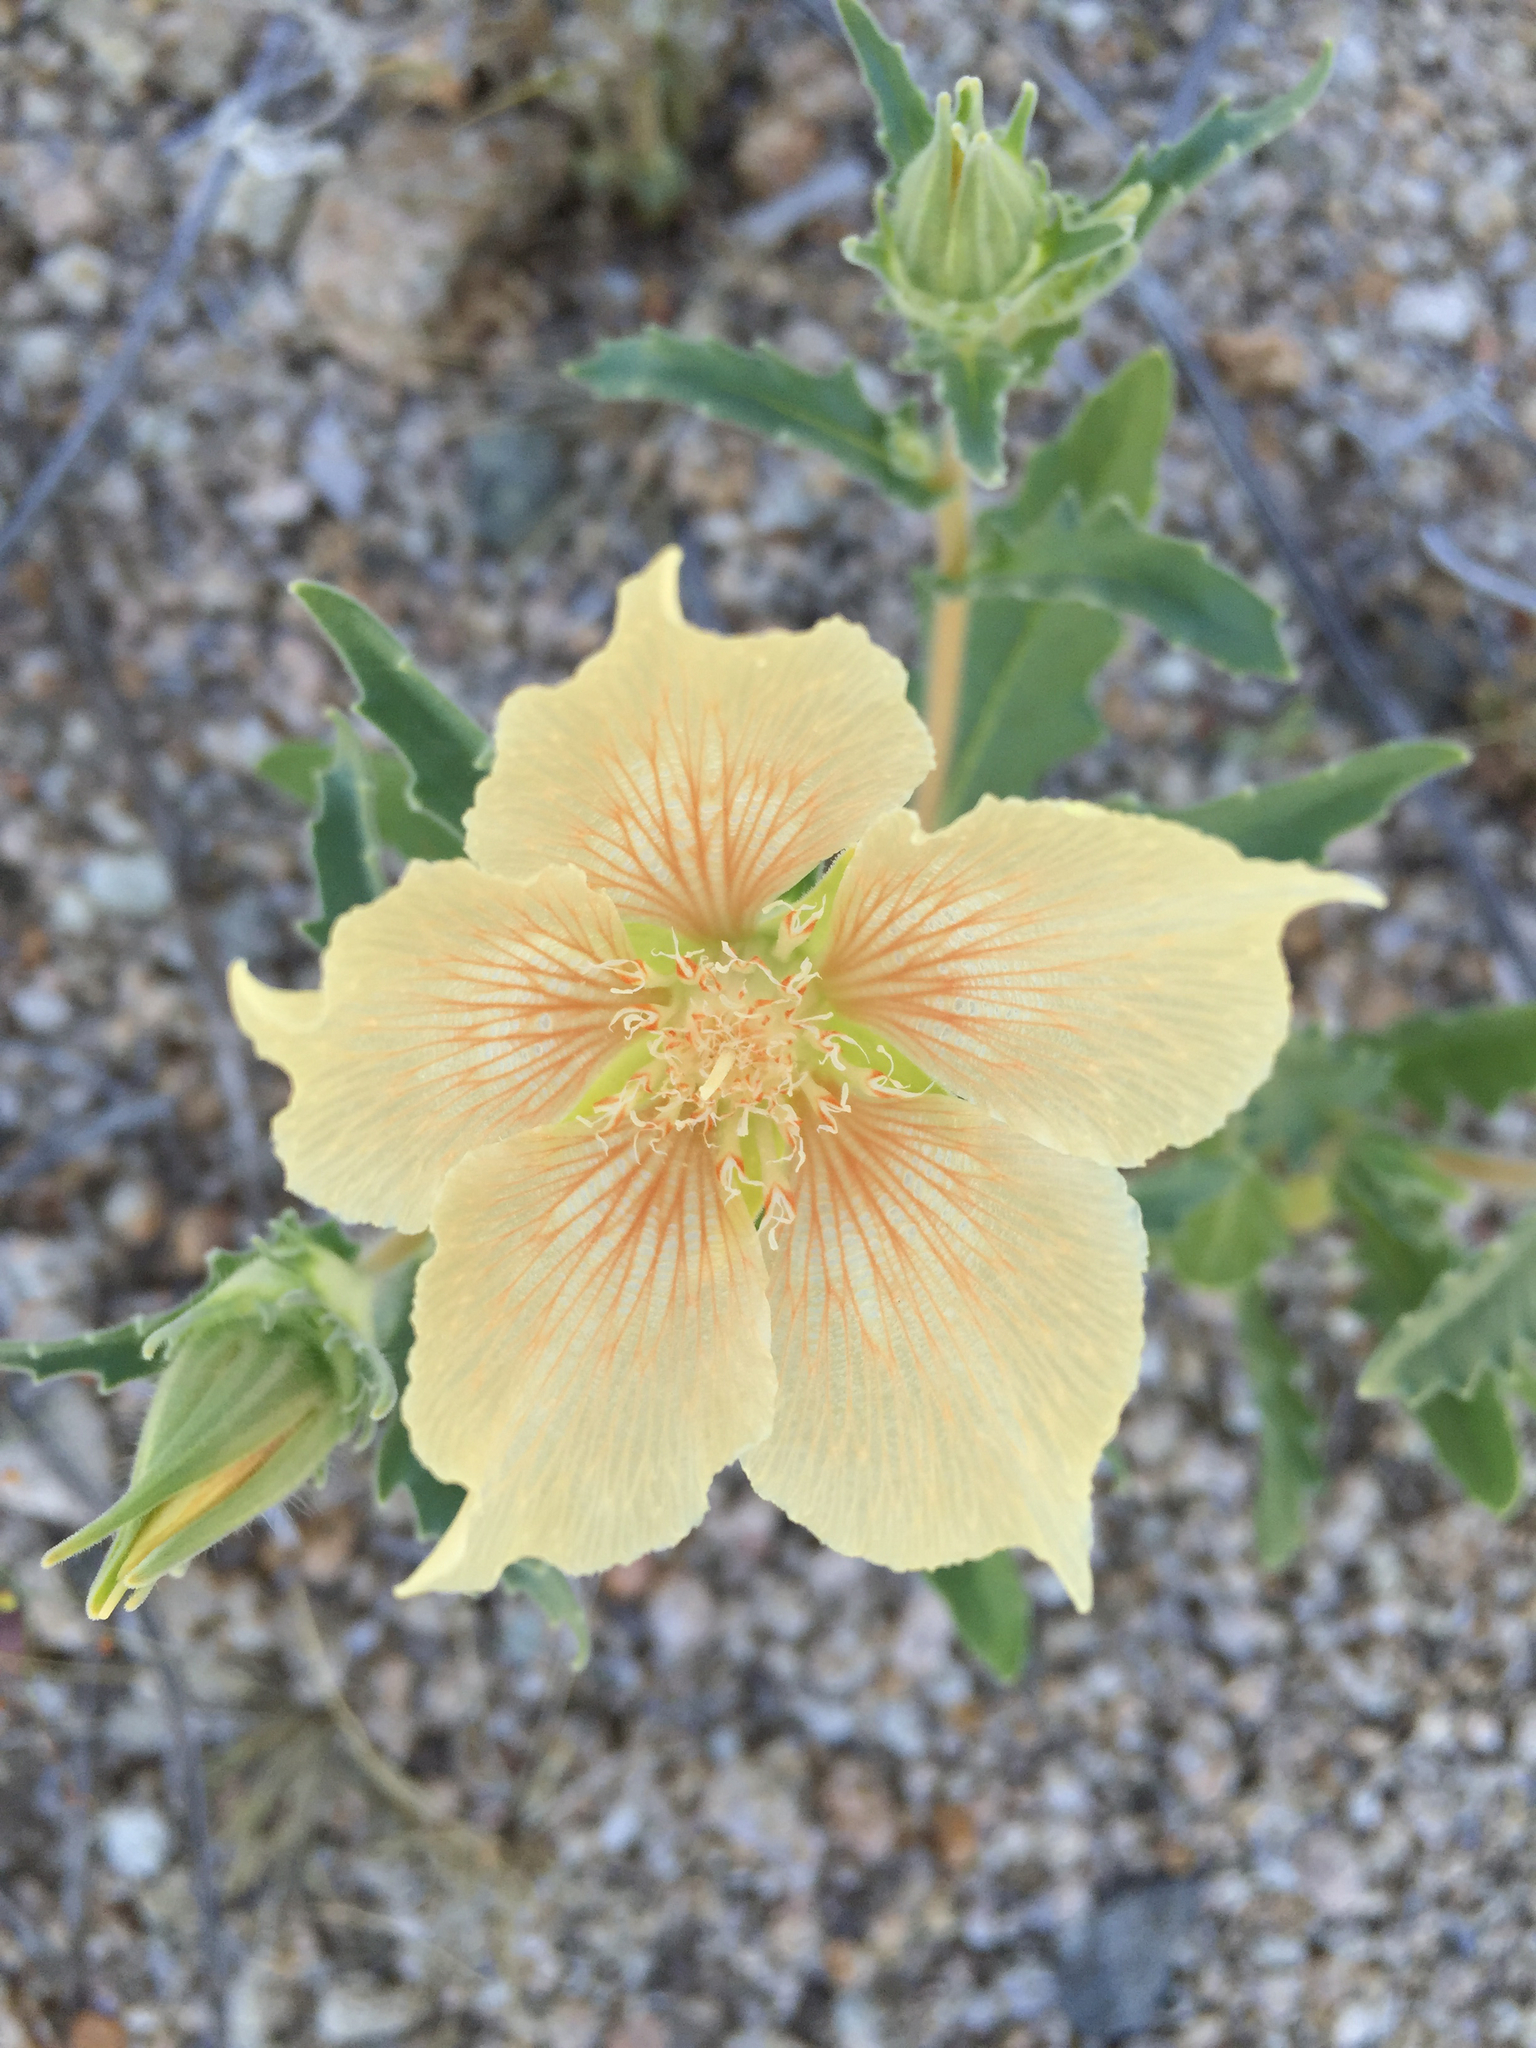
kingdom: Plantae
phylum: Tracheophyta
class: Magnoliopsida
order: Cornales
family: Loasaceae
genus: Mentzelia
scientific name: Mentzelia involucrata
